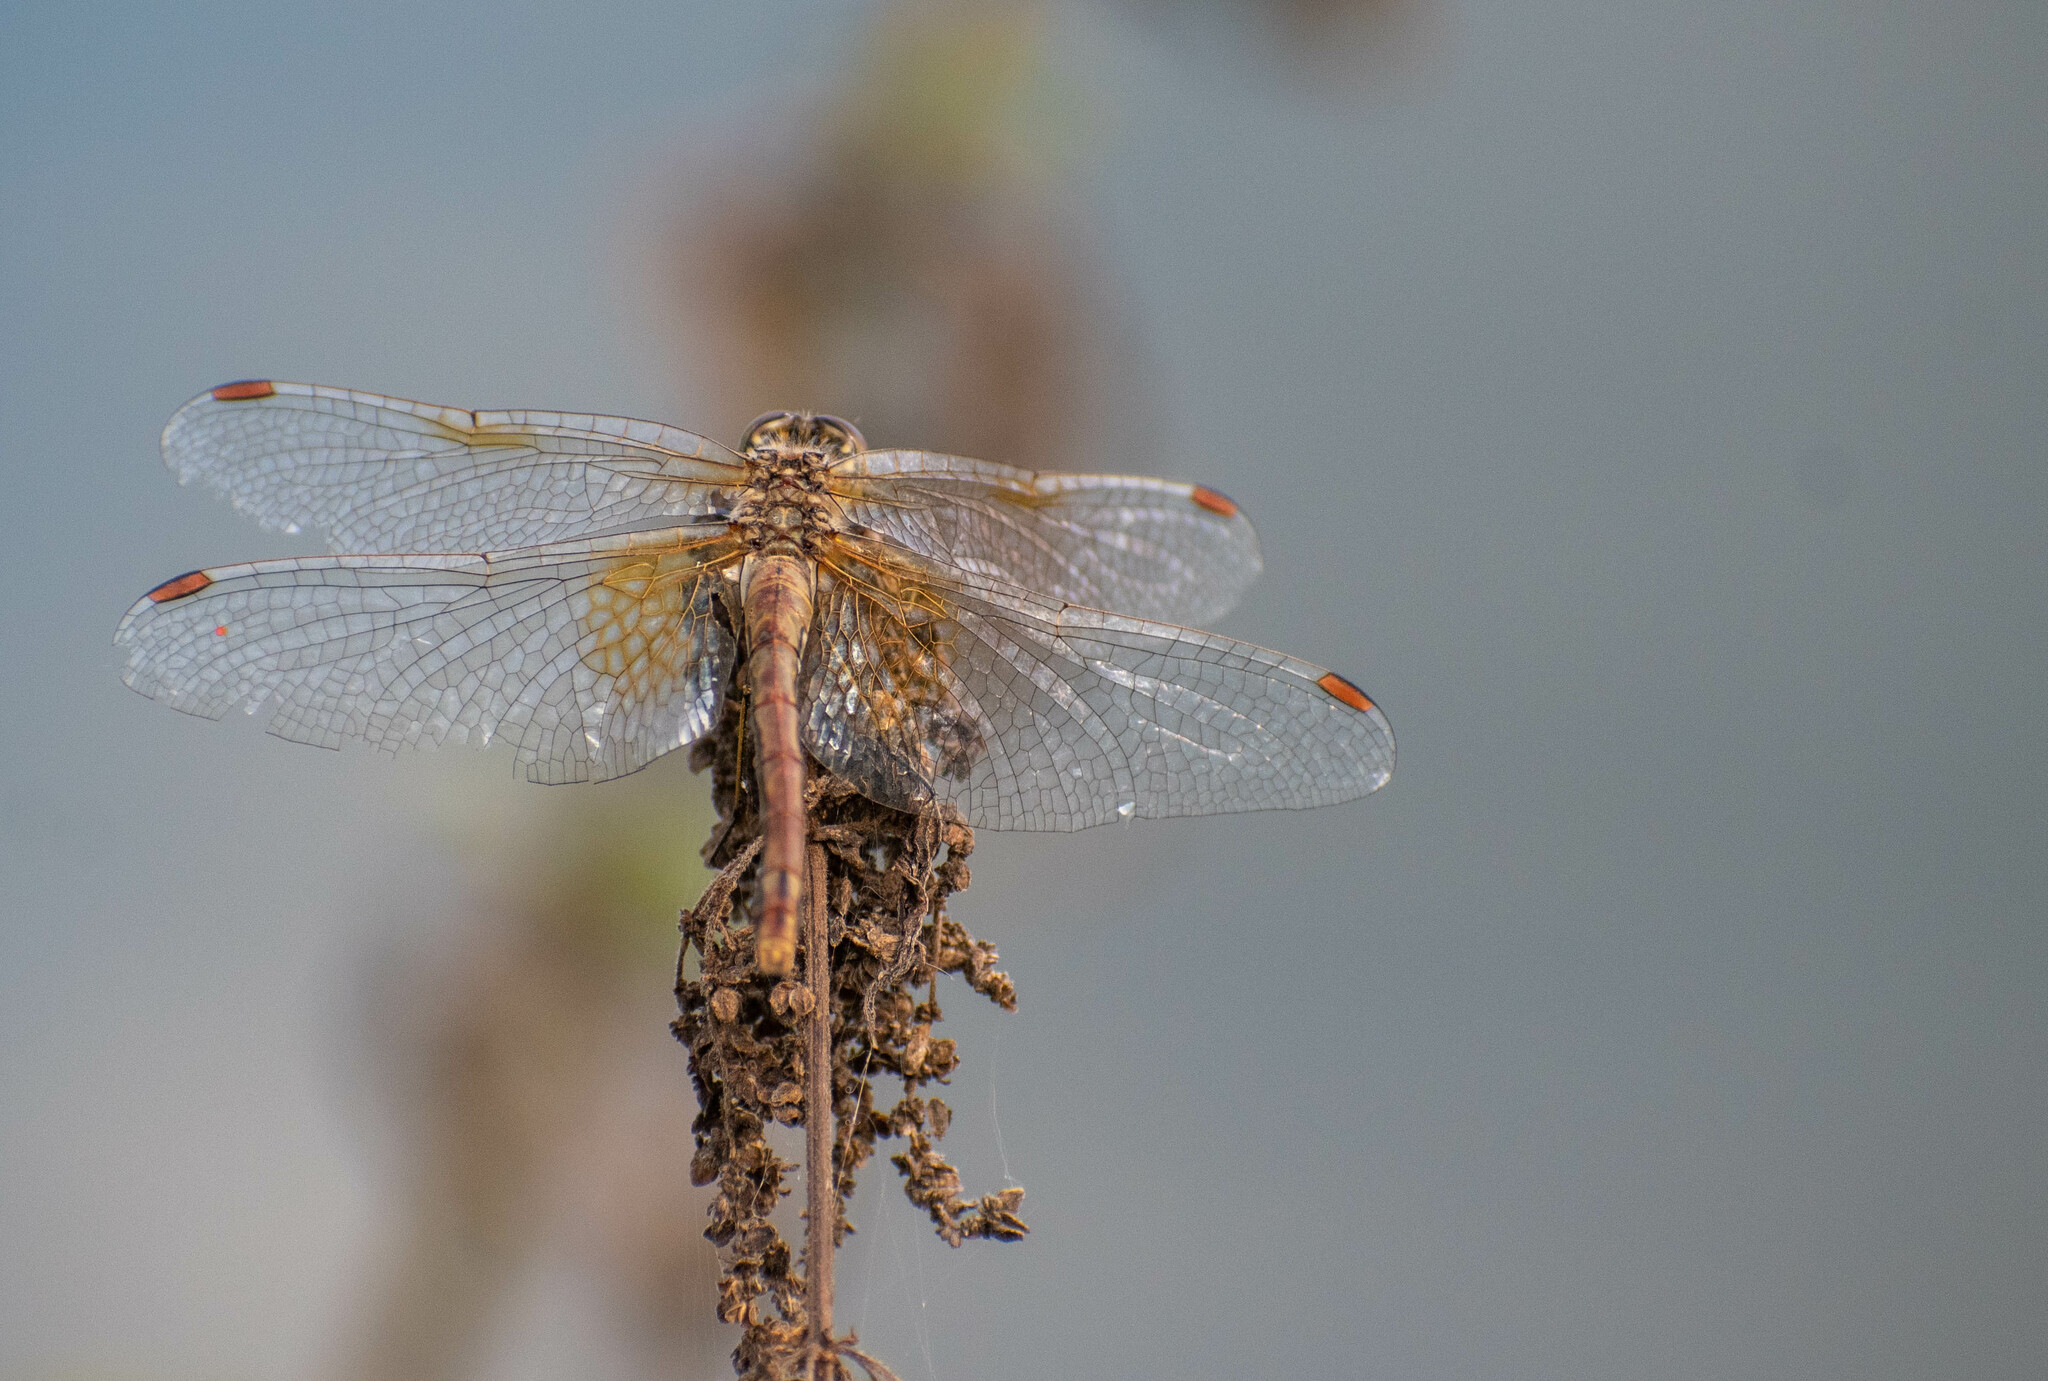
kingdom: Animalia
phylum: Arthropoda
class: Insecta
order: Odonata
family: Libellulidae
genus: Sympetrum
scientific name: Sympetrum flaveolum
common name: Yellow-winged darter
